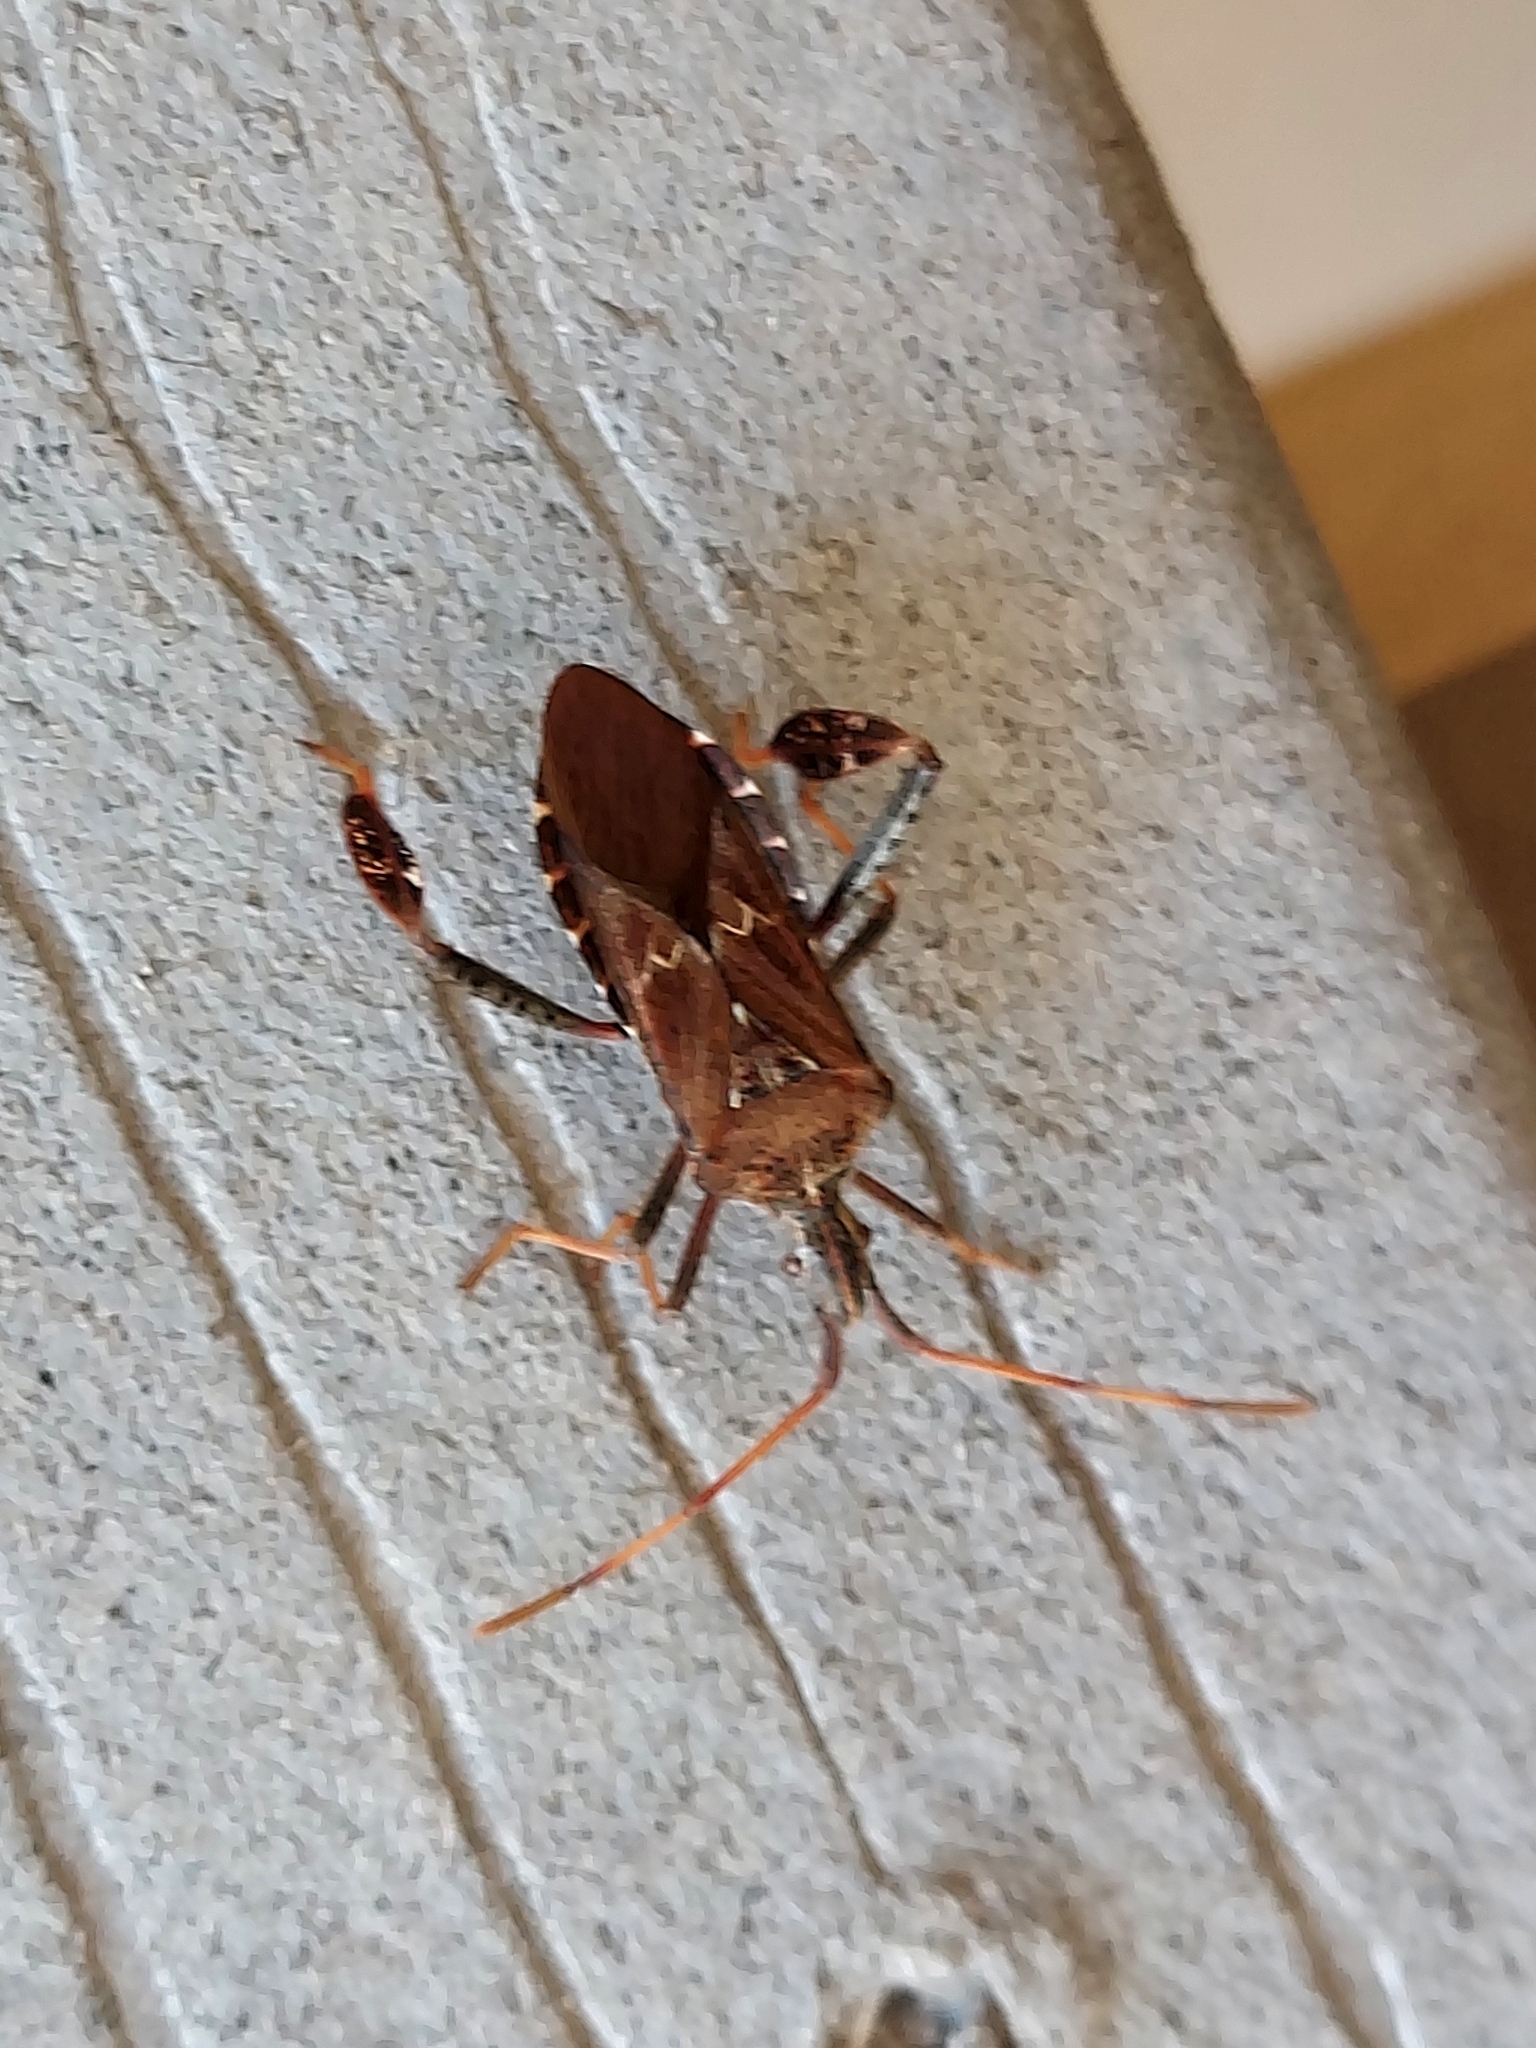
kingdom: Animalia
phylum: Arthropoda
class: Insecta
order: Hemiptera
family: Coreidae
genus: Leptoglossus
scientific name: Leptoglossus corculus
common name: Southern pine seed bug
